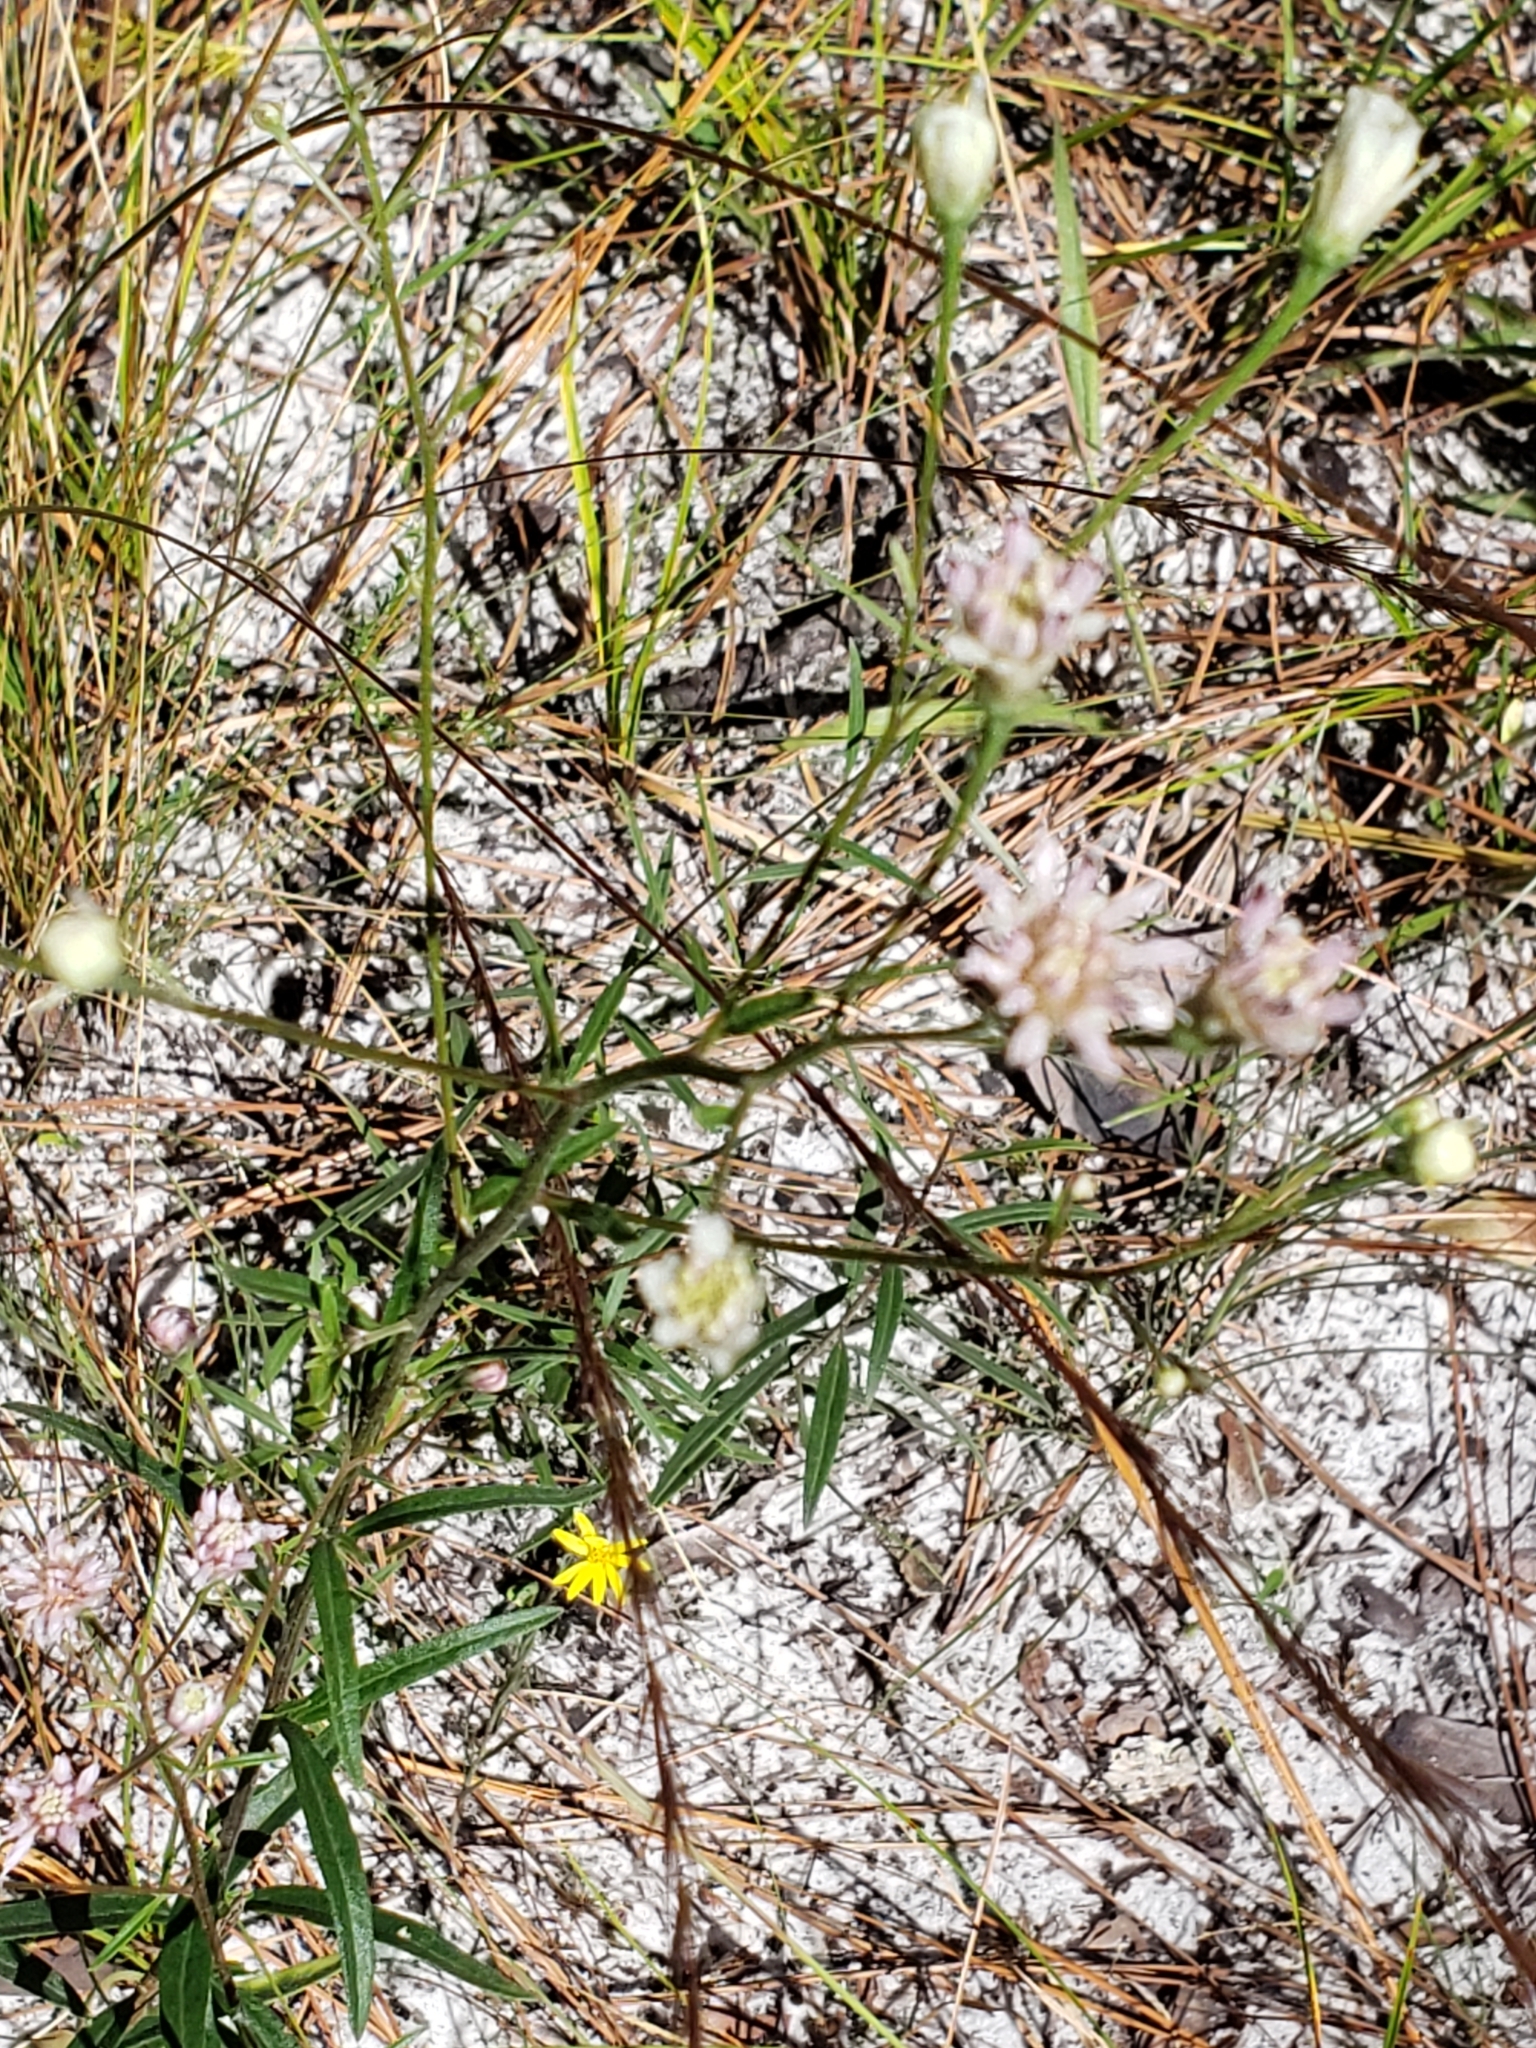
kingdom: Plantae
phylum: Tracheophyta
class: Magnoliopsida
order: Asterales
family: Asteraceae
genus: Palafoxia
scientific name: Palafoxia integrifolia
